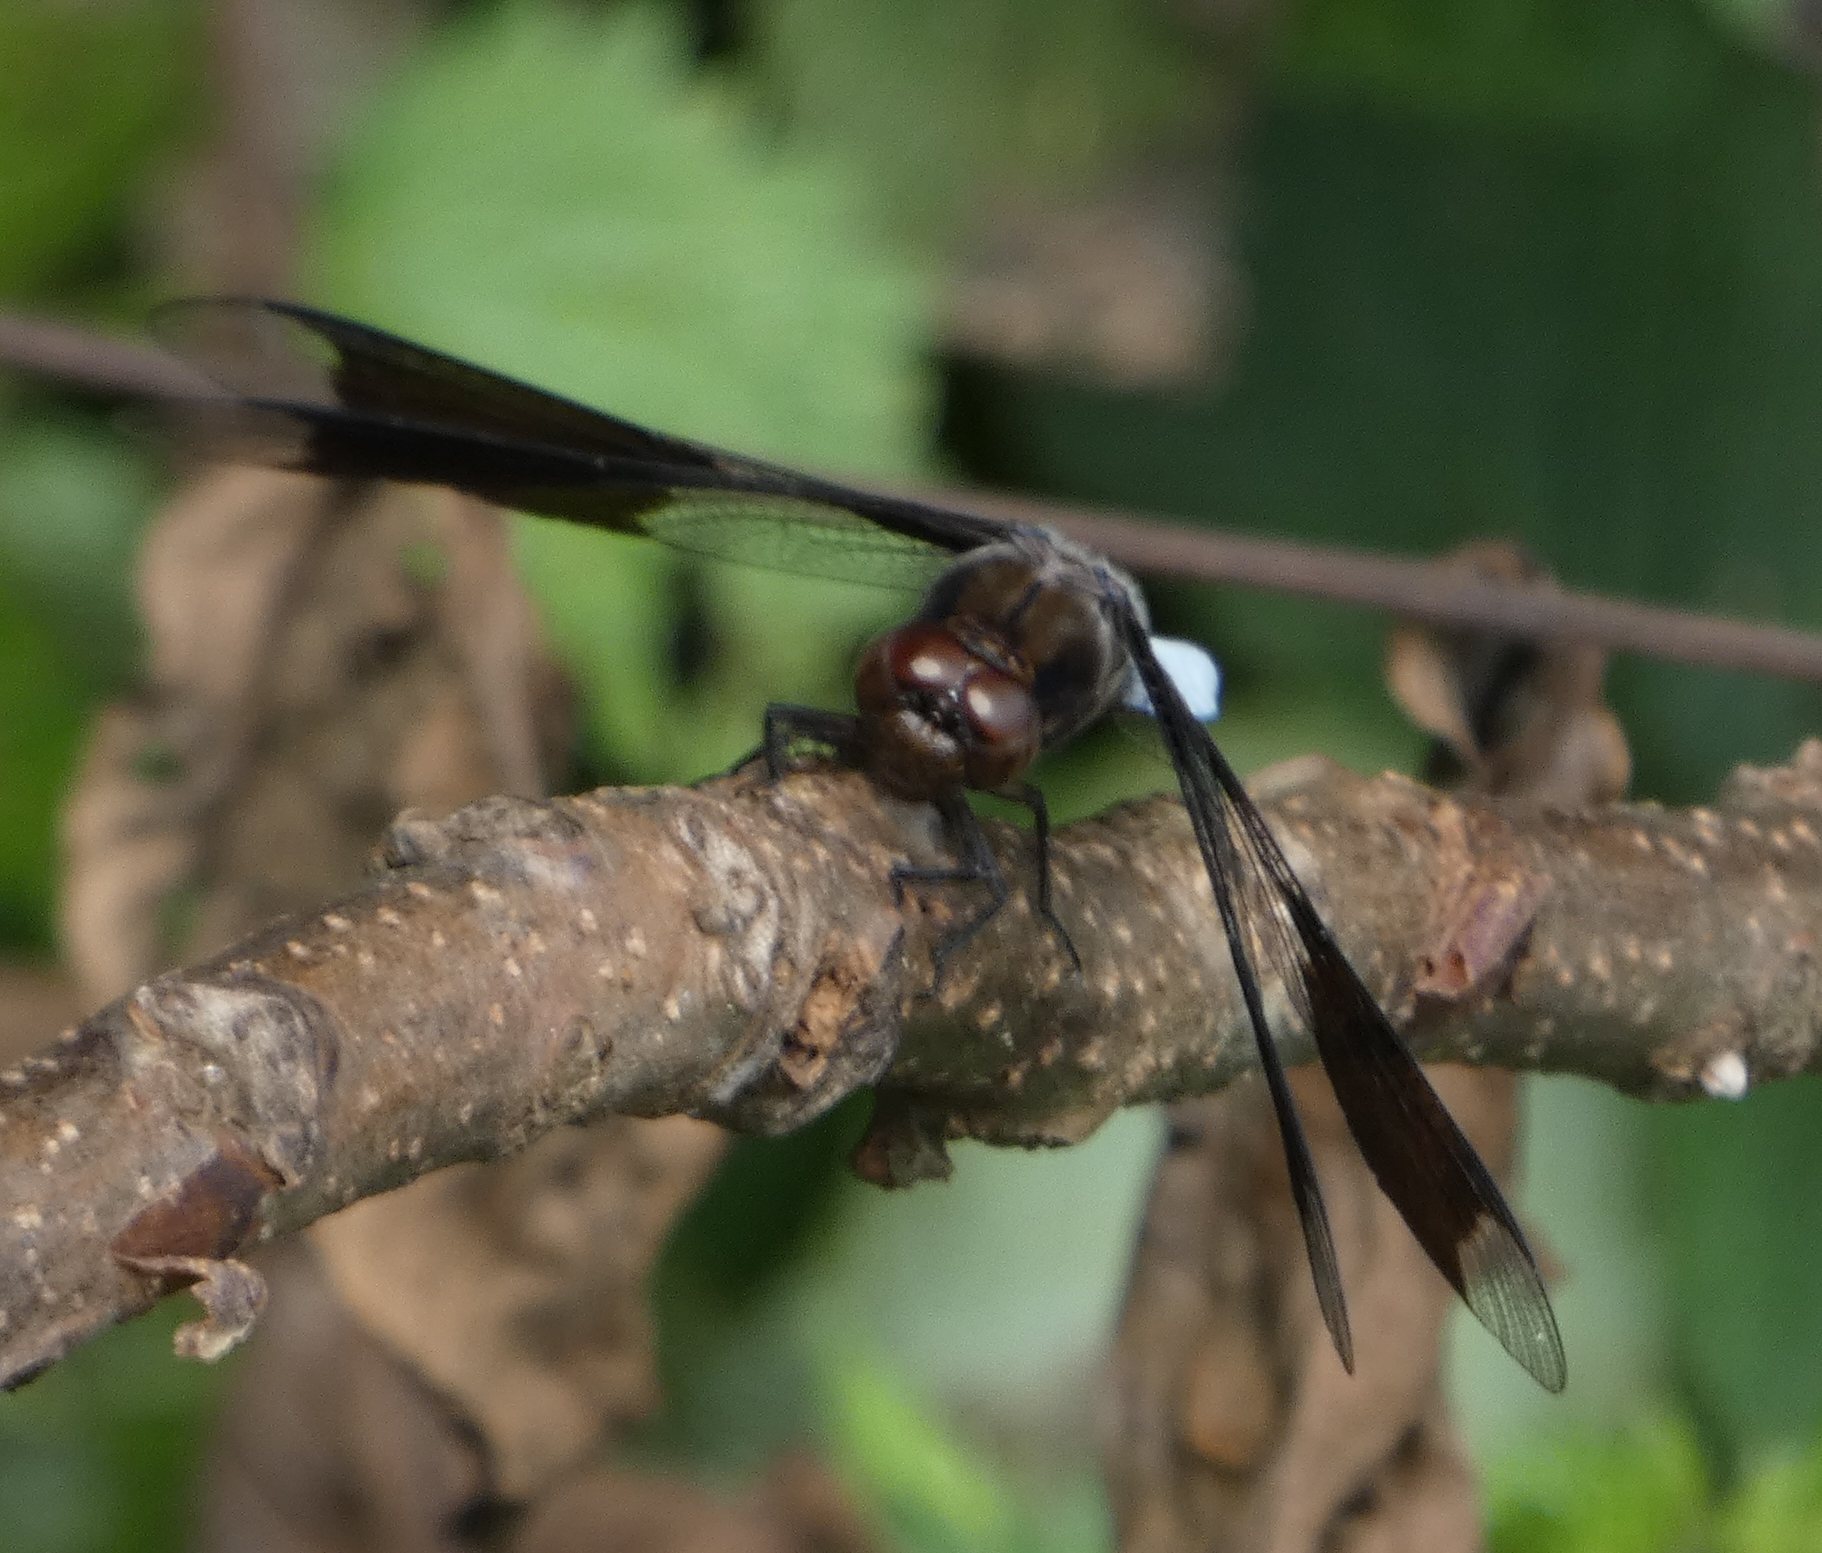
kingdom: Animalia
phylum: Arthropoda
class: Insecta
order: Odonata
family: Libellulidae
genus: Plathemis
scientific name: Plathemis lydia
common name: Common whitetail
